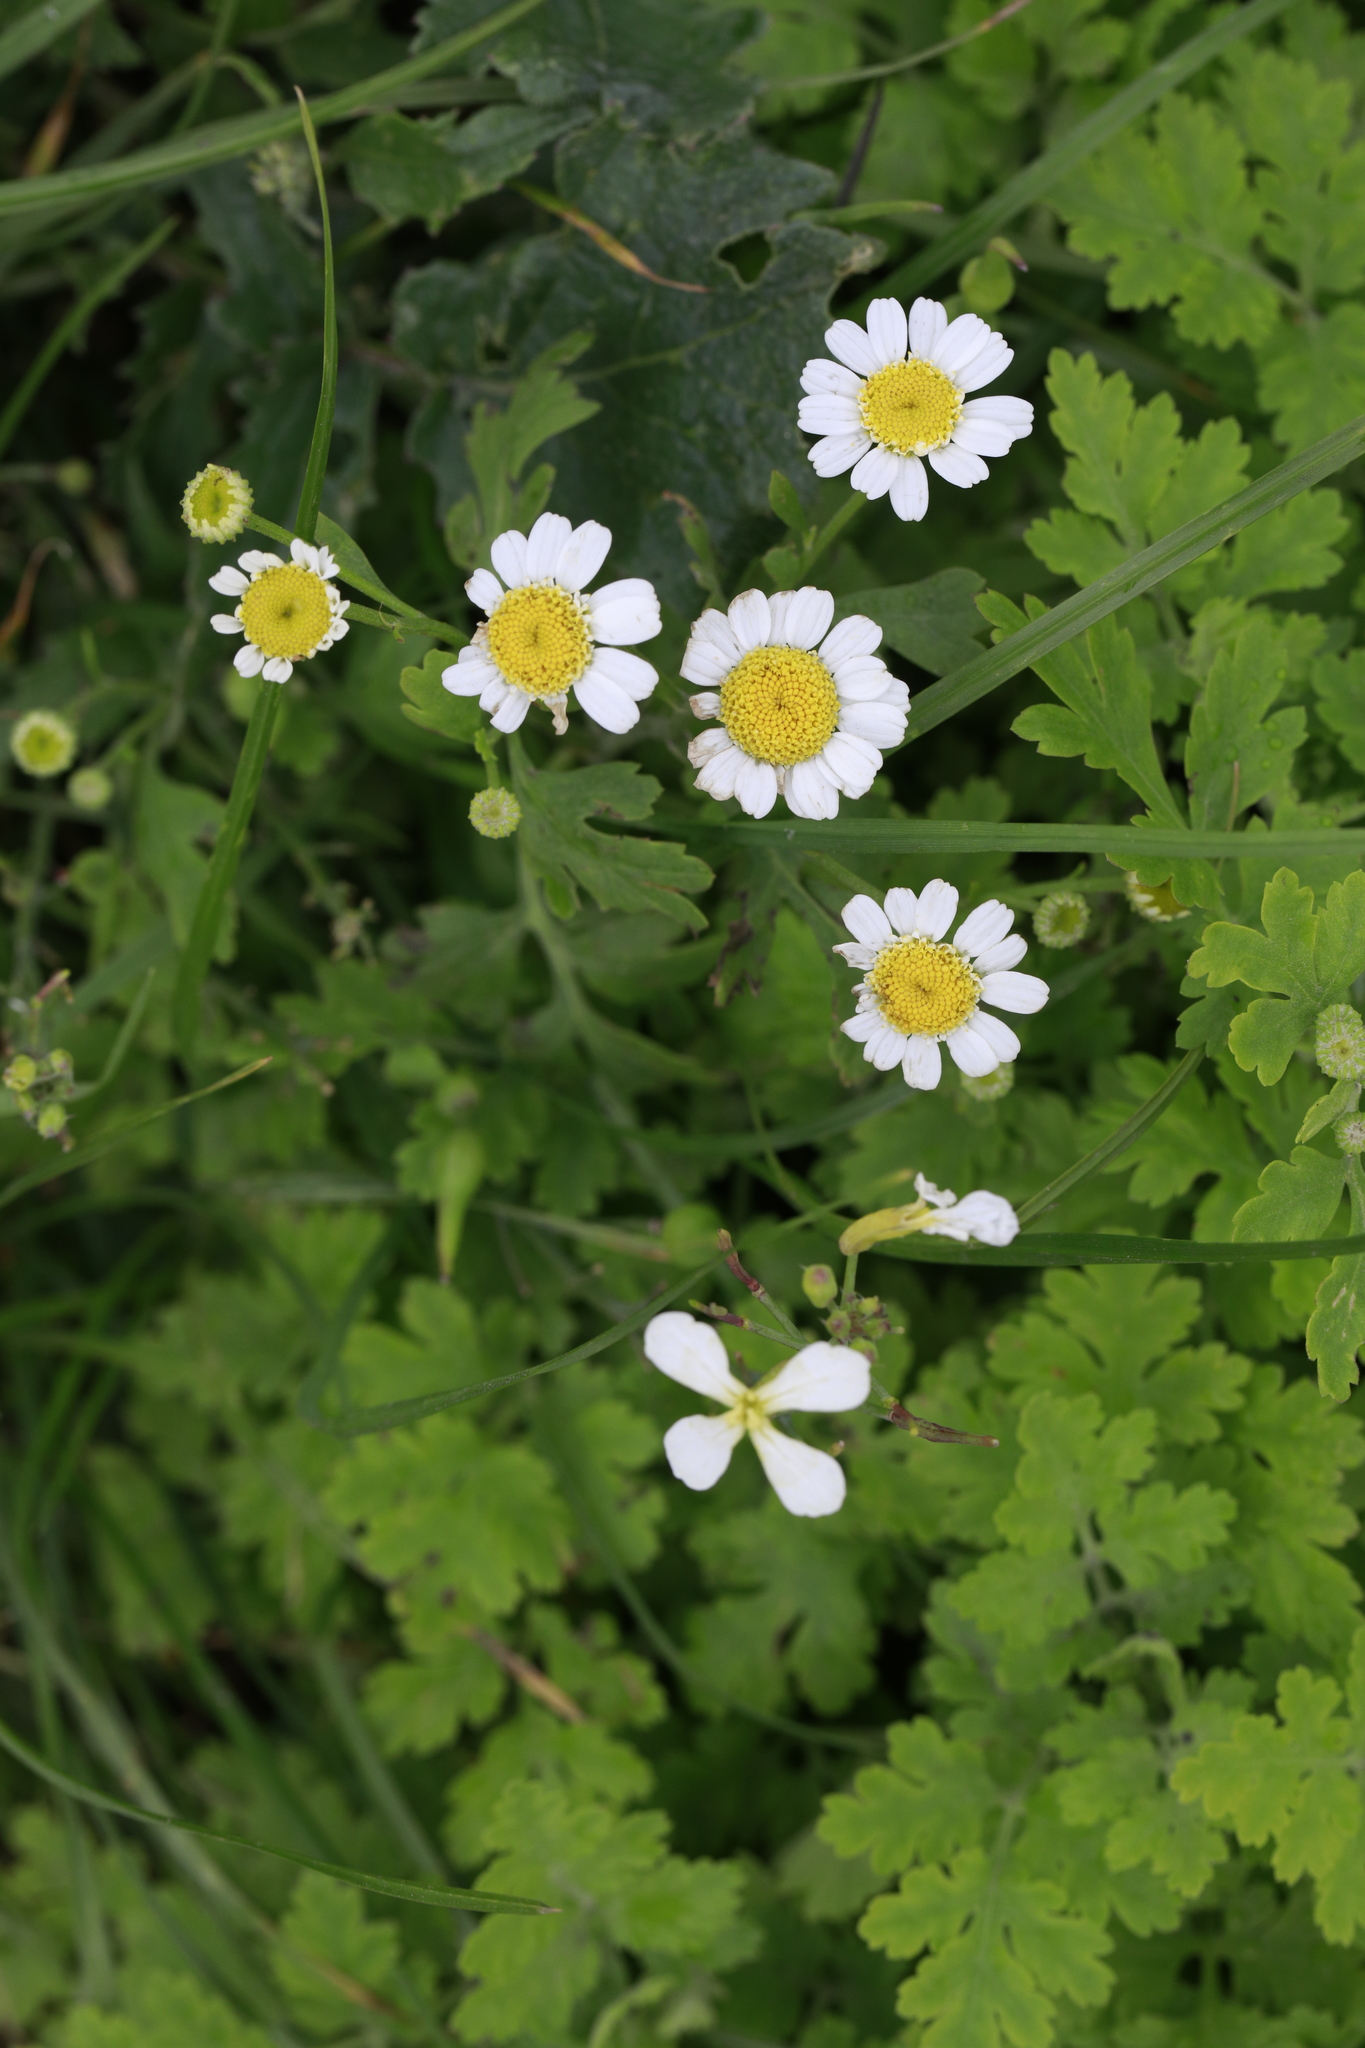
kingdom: Plantae
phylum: Tracheophyta
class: Magnoliopsida
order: Asterales
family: Asteraceae
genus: Tanacetum
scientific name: Tanacetum parthenium
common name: Feverfew
